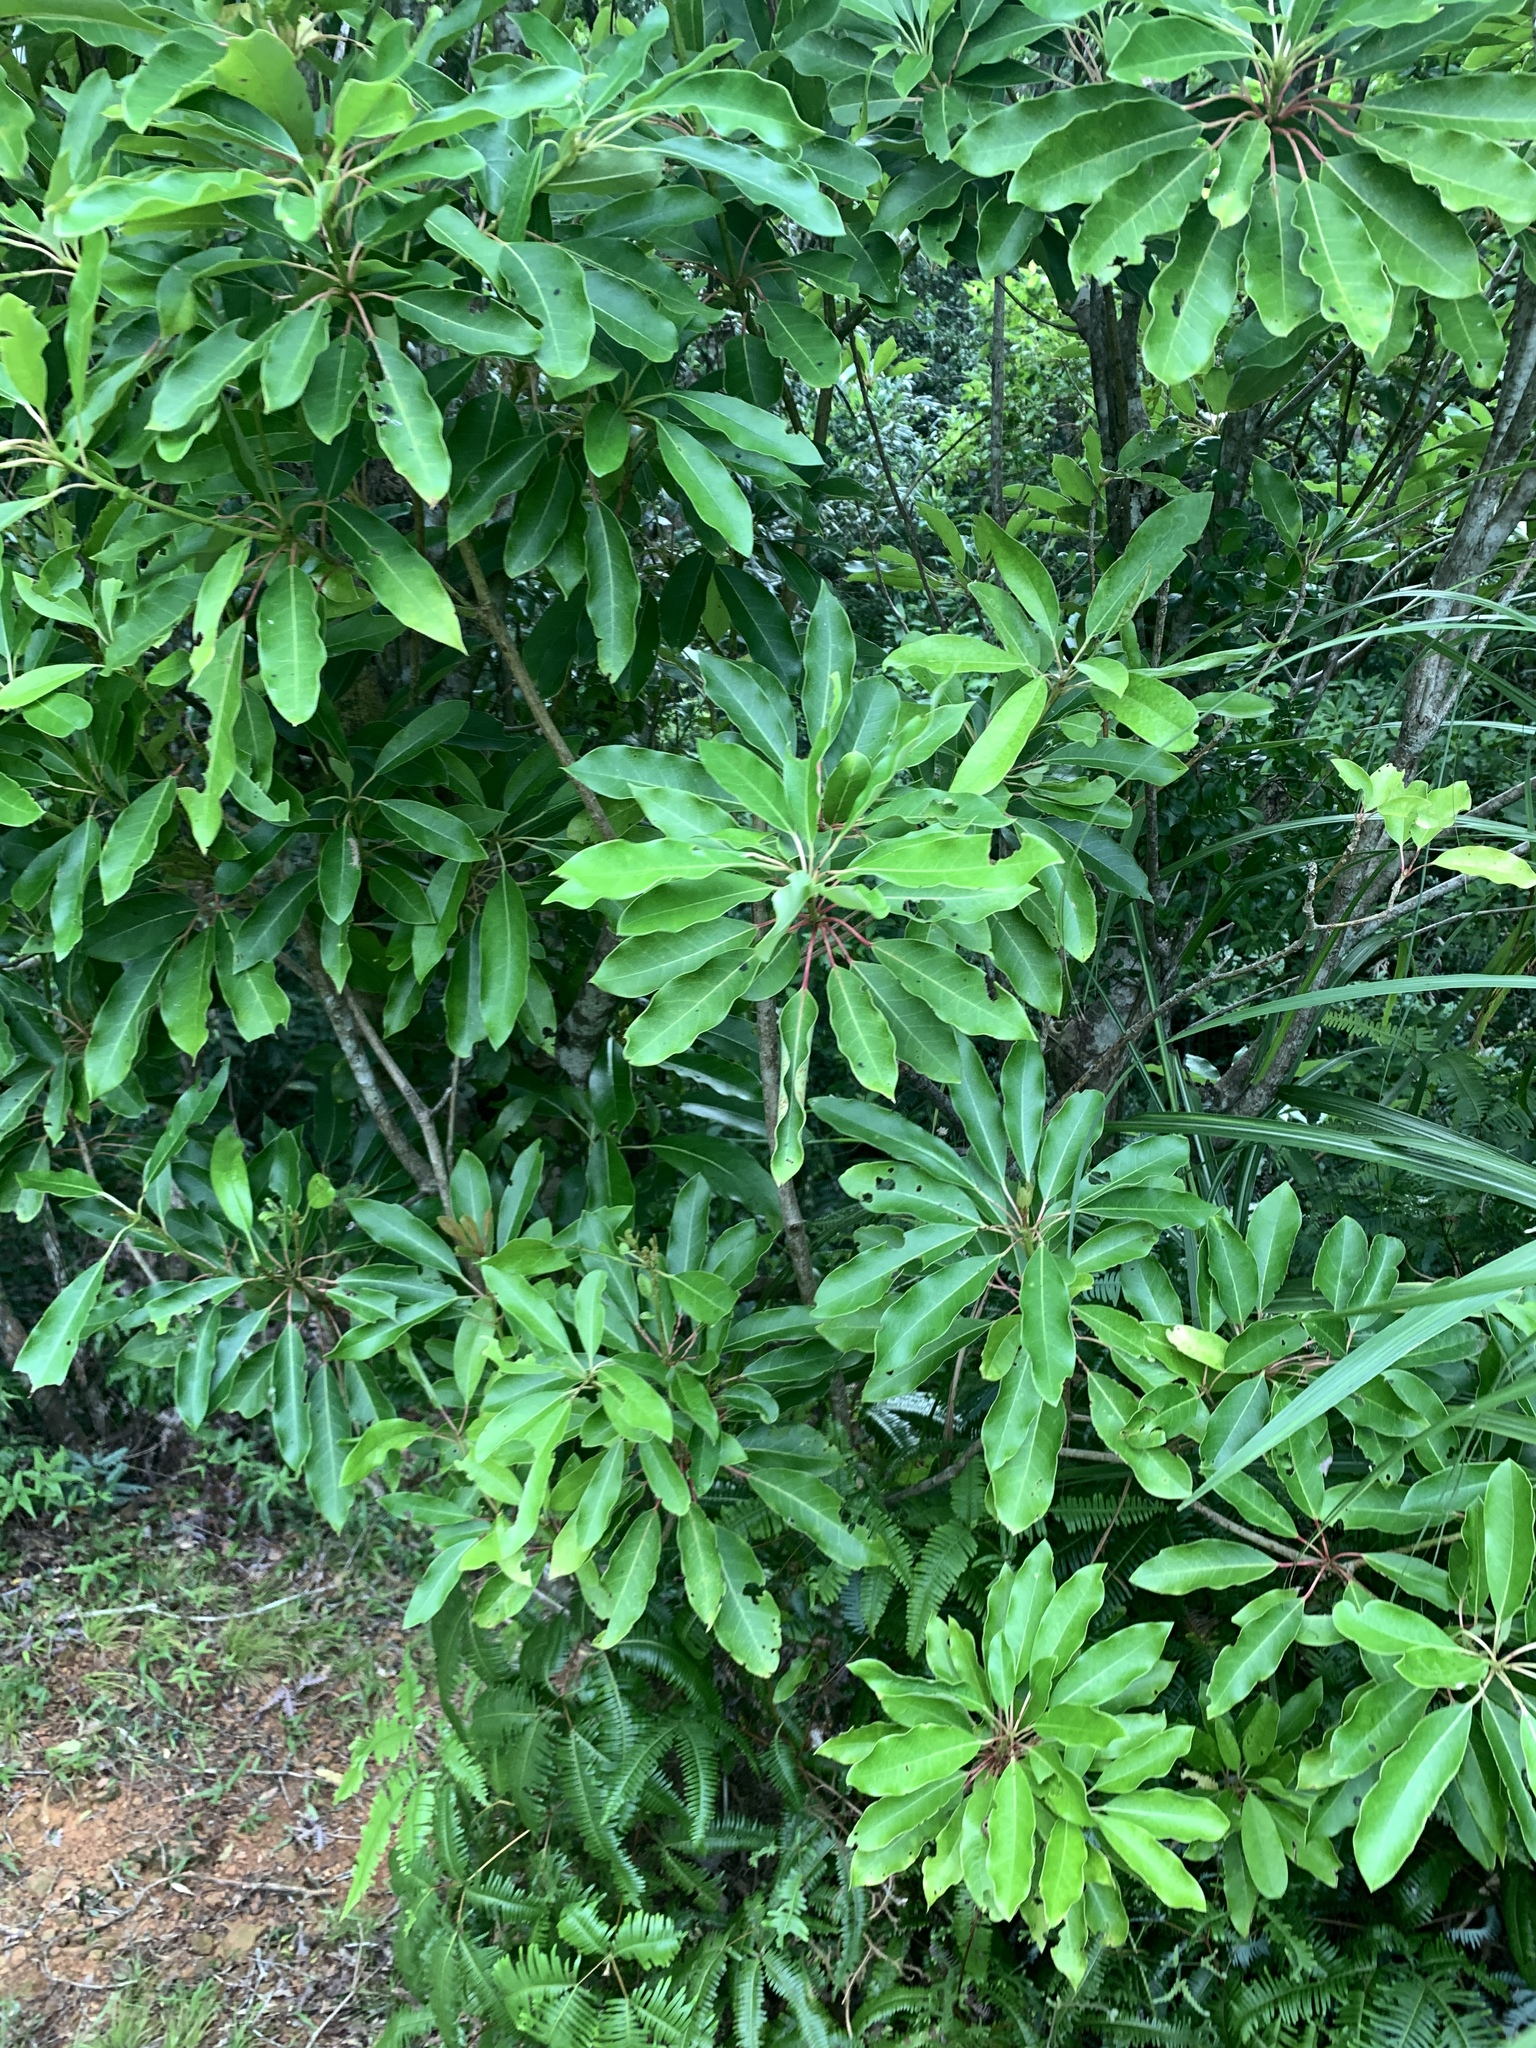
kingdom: Plantae
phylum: Tracheophyta
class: Magnoliopsida
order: Saxifragales
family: Daphniphyllaceae
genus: Daphniphyllum
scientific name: Daphniphyllum pentandrum
